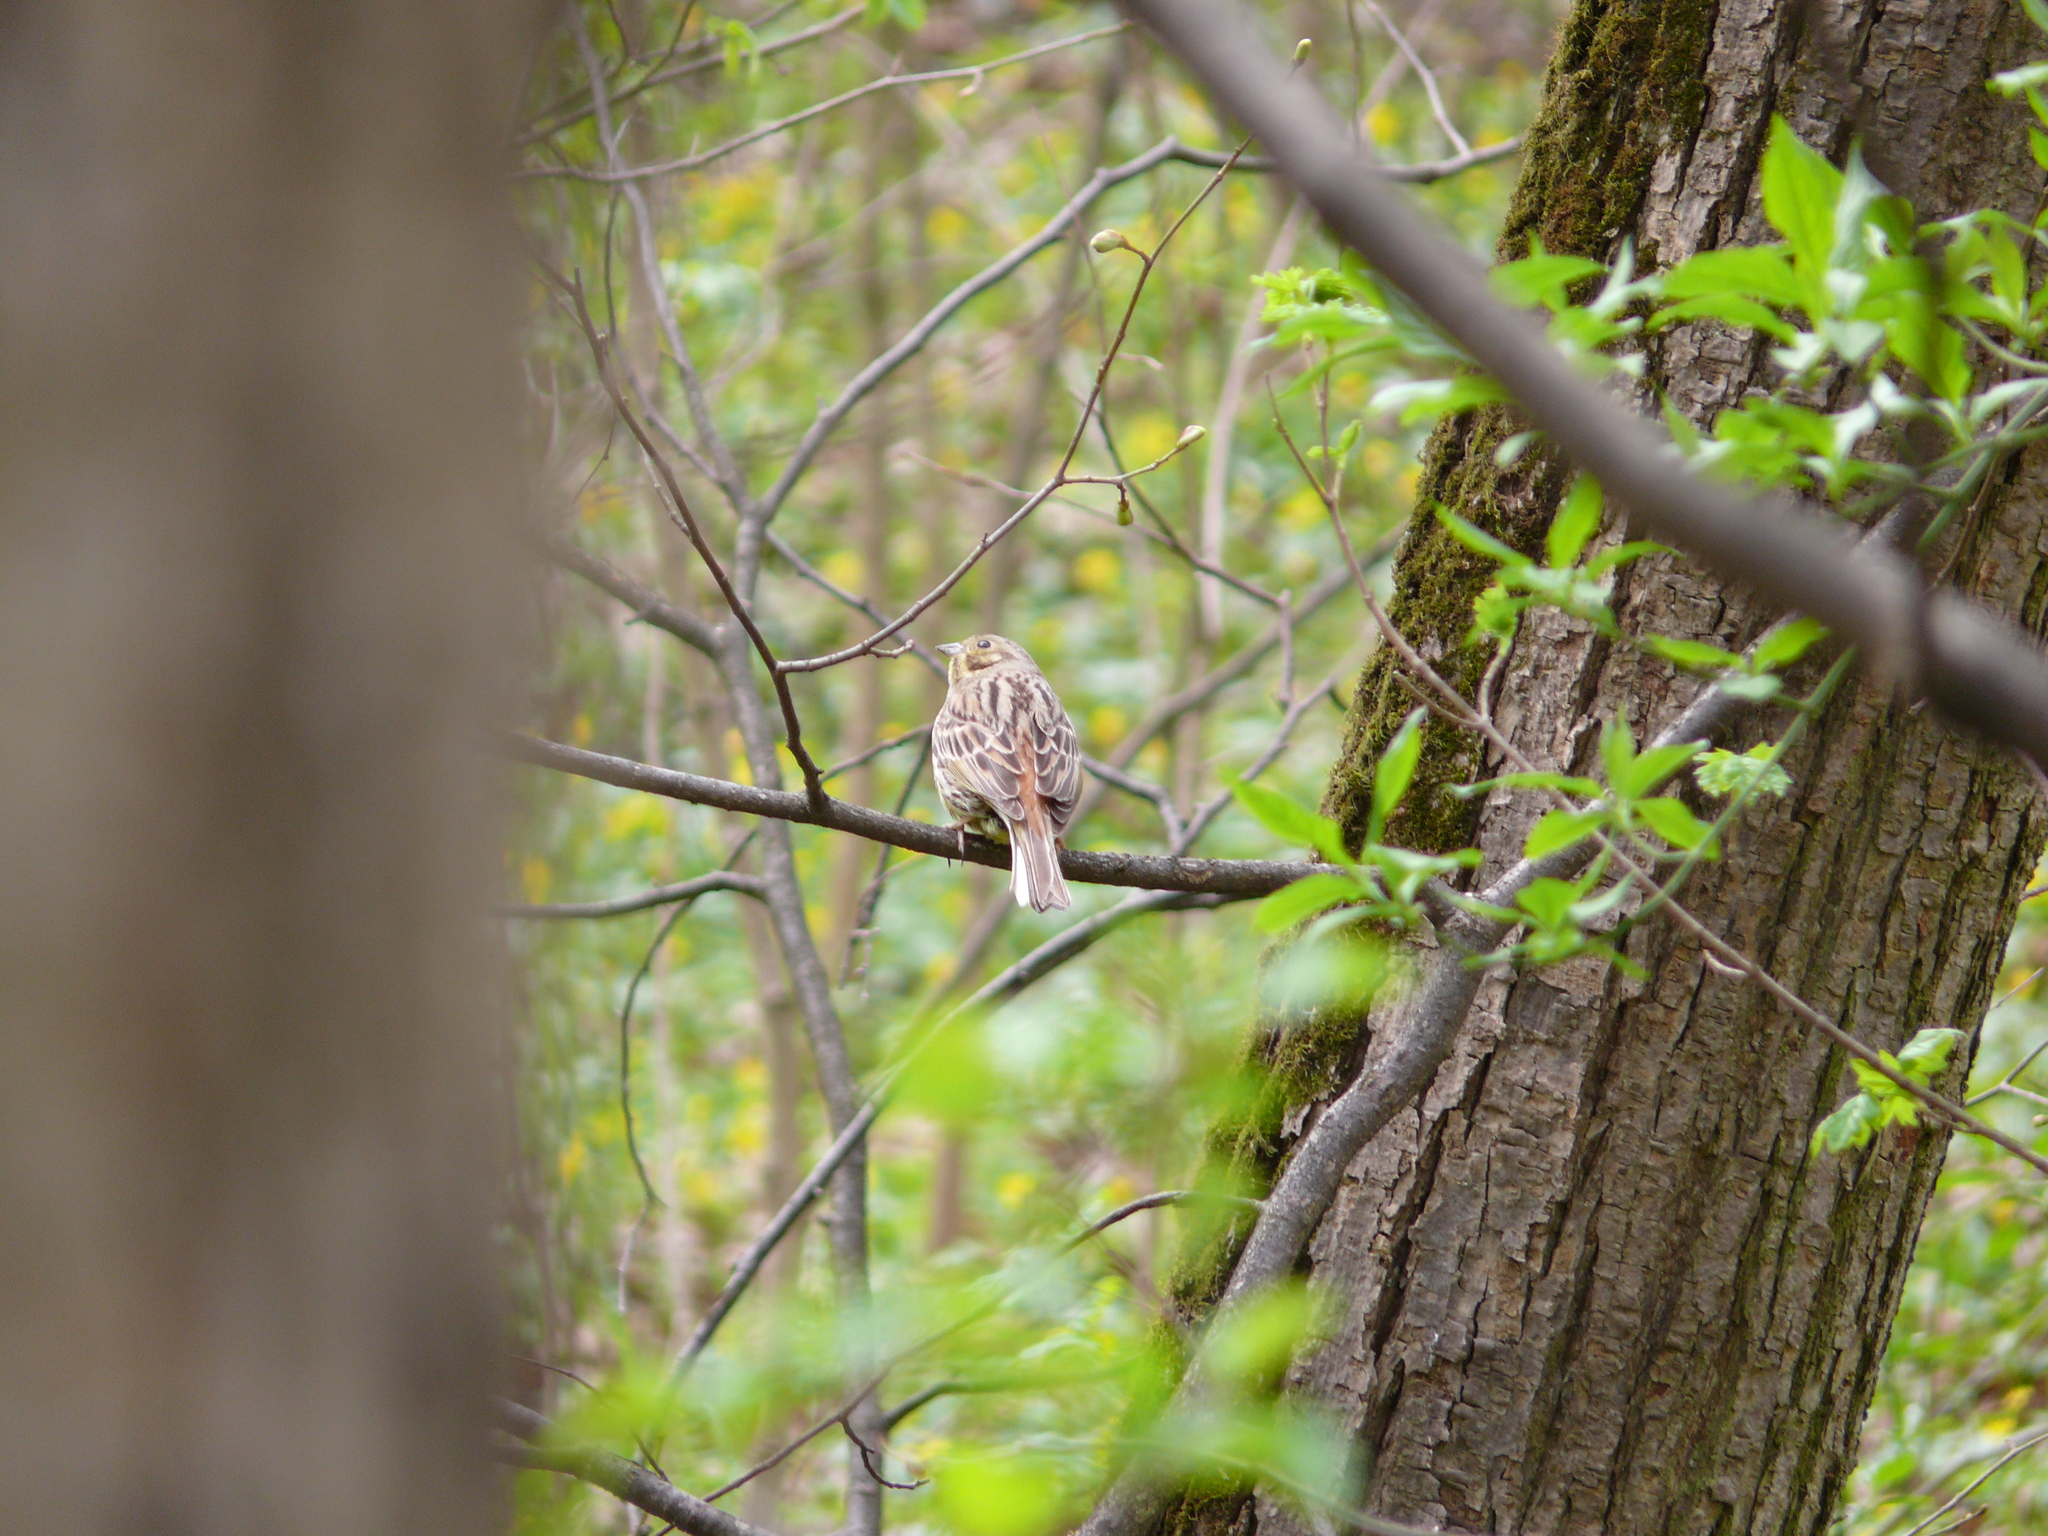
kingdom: Animalia
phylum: Chordata
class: Aves
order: Passeriformes
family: Emberizidae
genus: Emberiza
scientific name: Emberiza citrinella
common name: Yellowhammer
